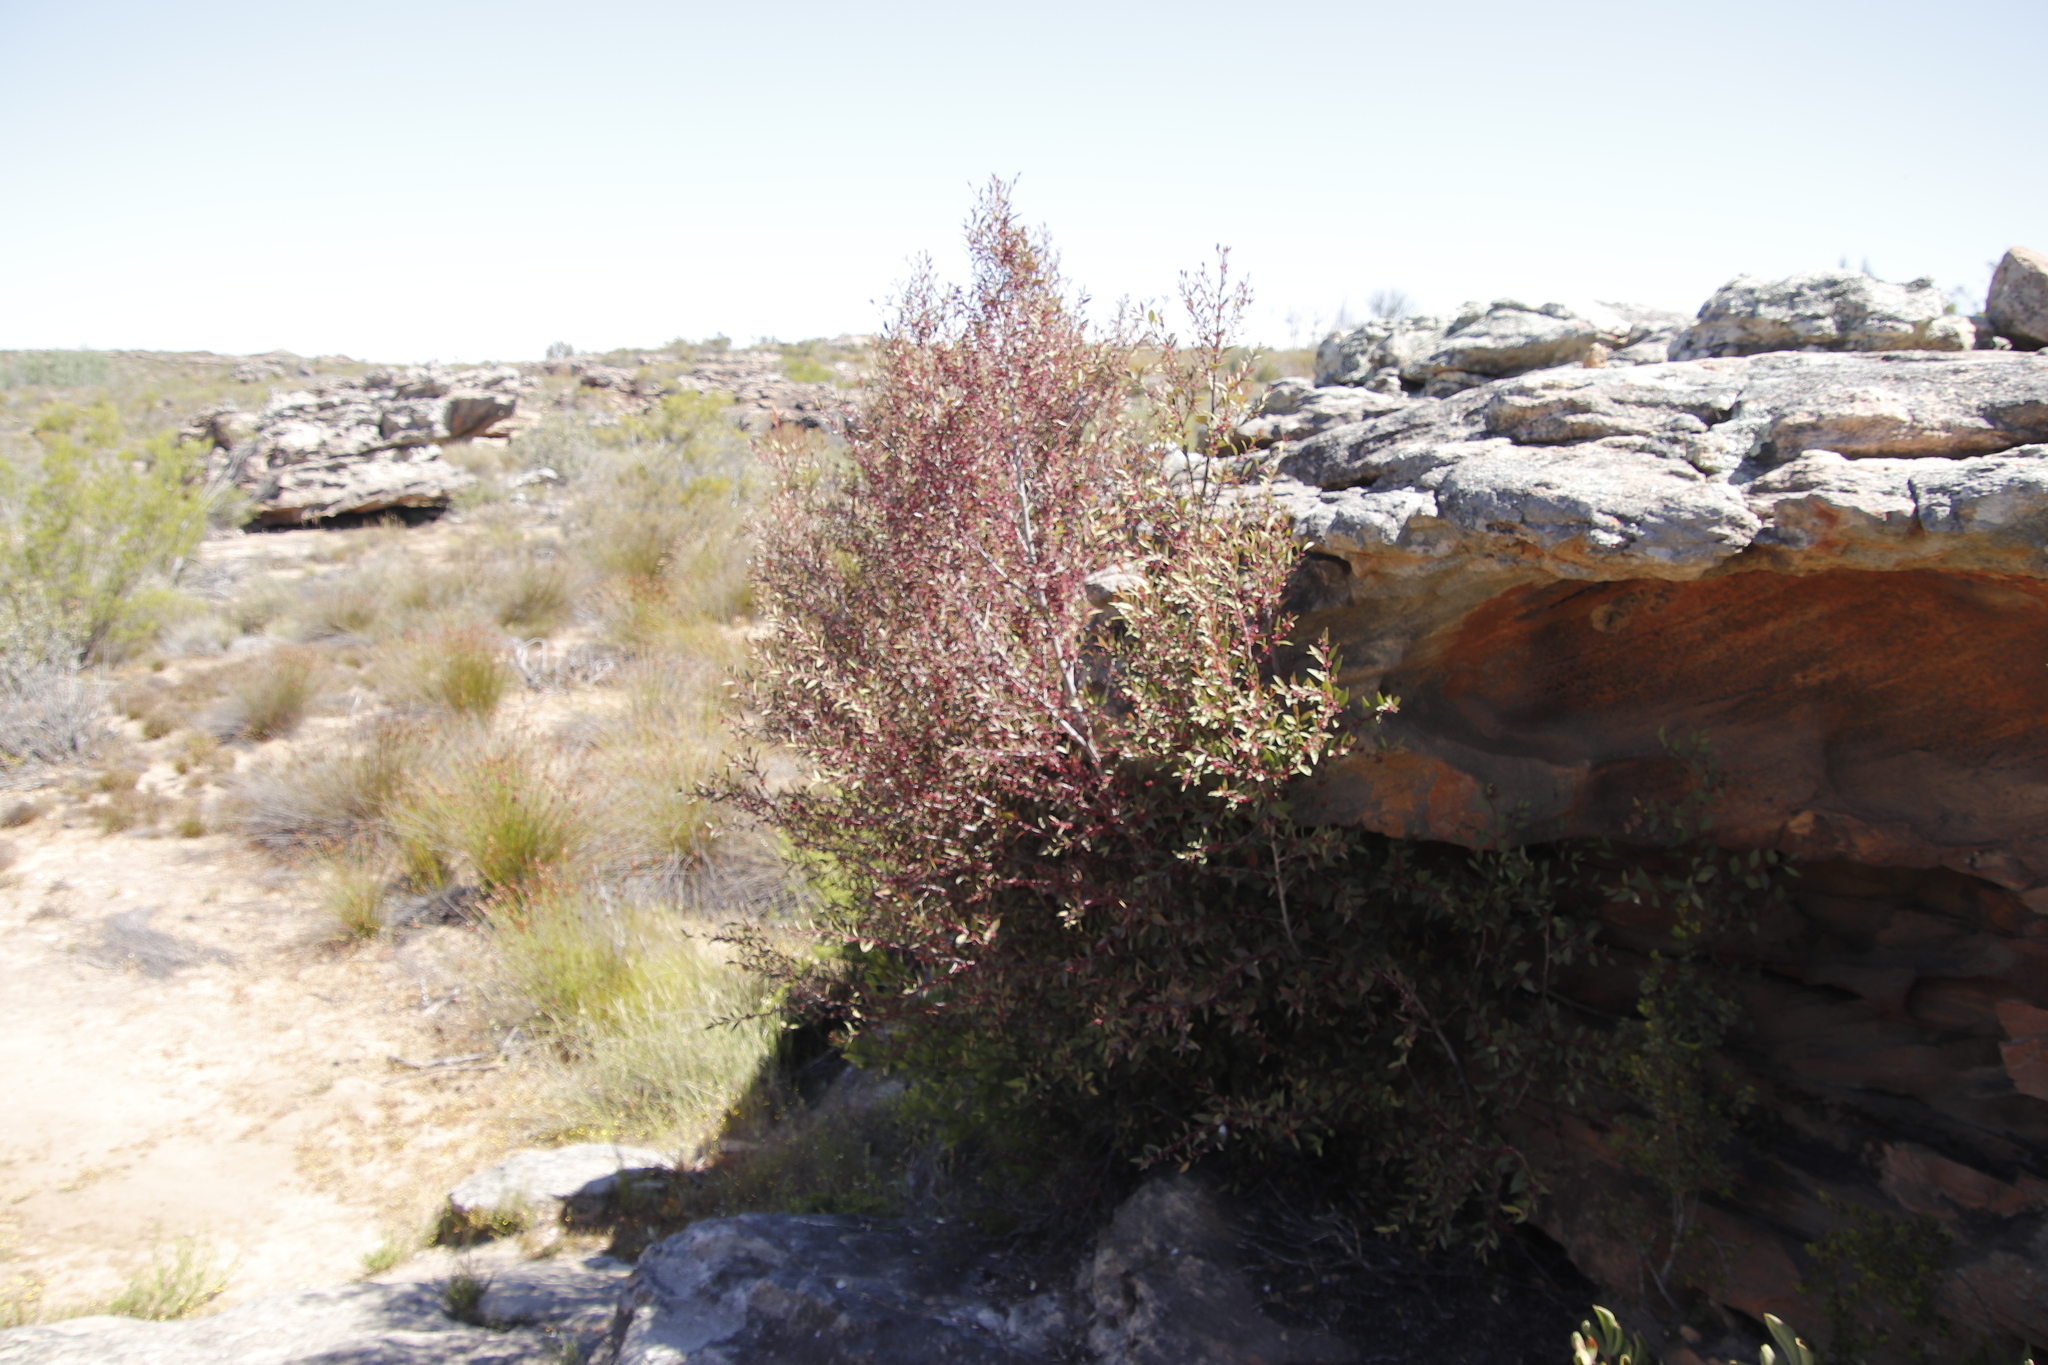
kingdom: Plantae
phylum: Tracheophyta
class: Magnoliopsida
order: Celastrales
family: Celastraceae
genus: Gymnosporia
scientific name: Gymnosporia acuminata
